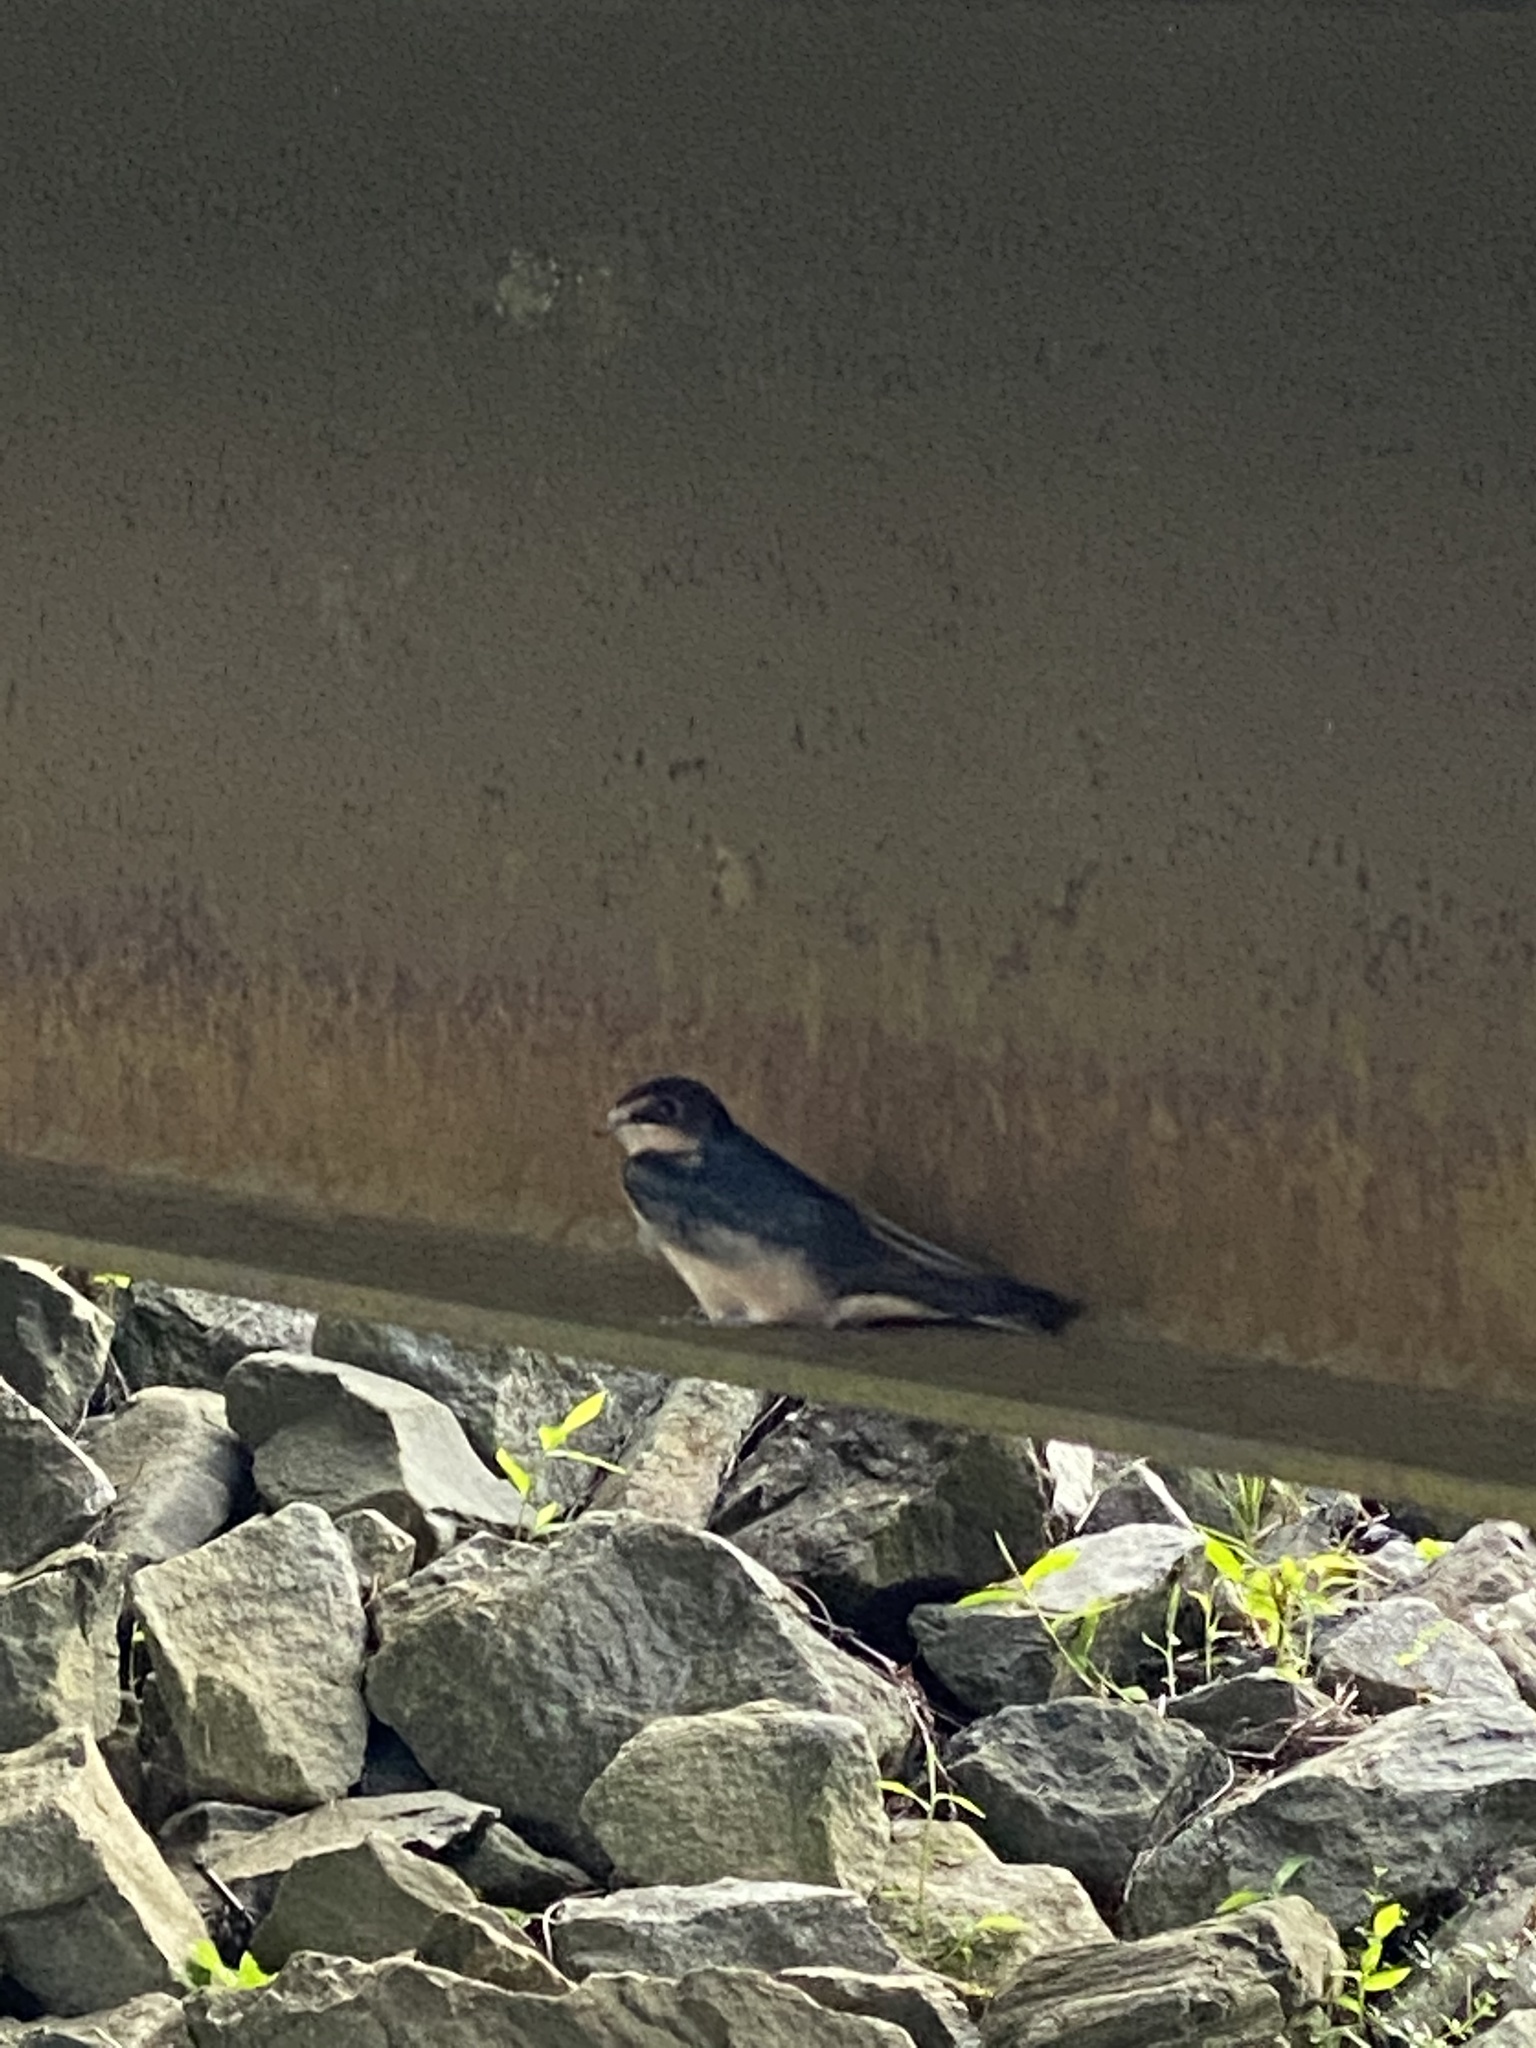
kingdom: Animalia
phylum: Chordata
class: Aves
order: Passeriformes
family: Hirundinidae
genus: Hirundo
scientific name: Hirundo rustica
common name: Barn swallow
